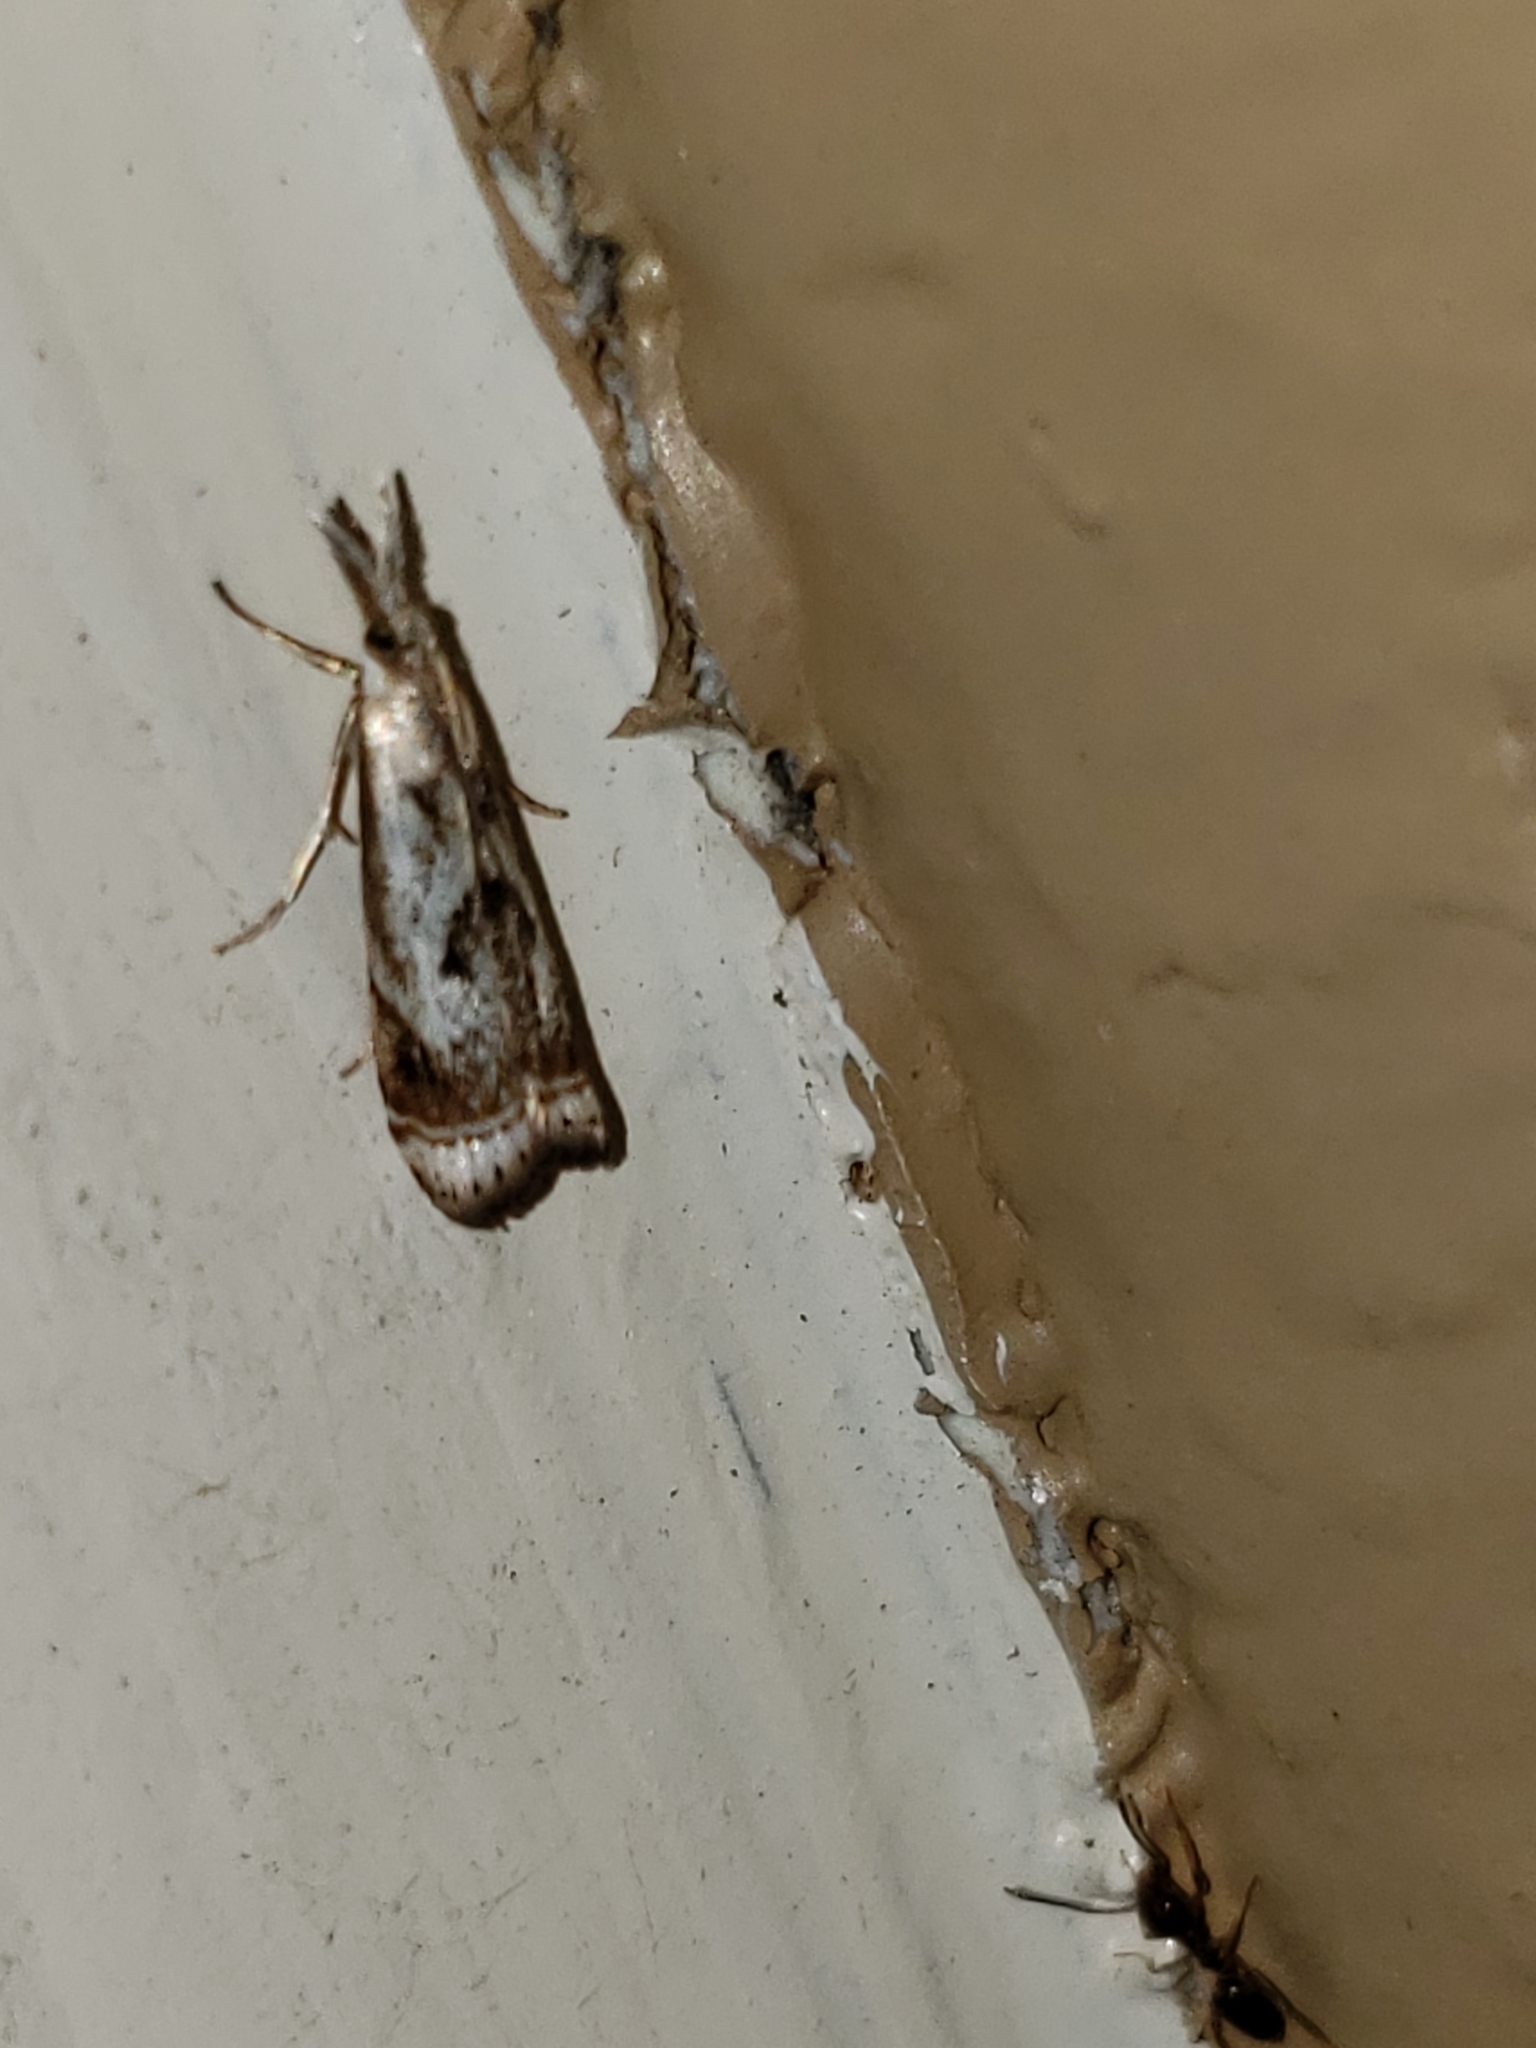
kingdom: Animalia
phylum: Arthropoda
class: Insecta
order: Lepidoptera
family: Crambidae
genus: Microcrambus
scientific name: Microcrambus elegans
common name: Elegant grass-veneer
